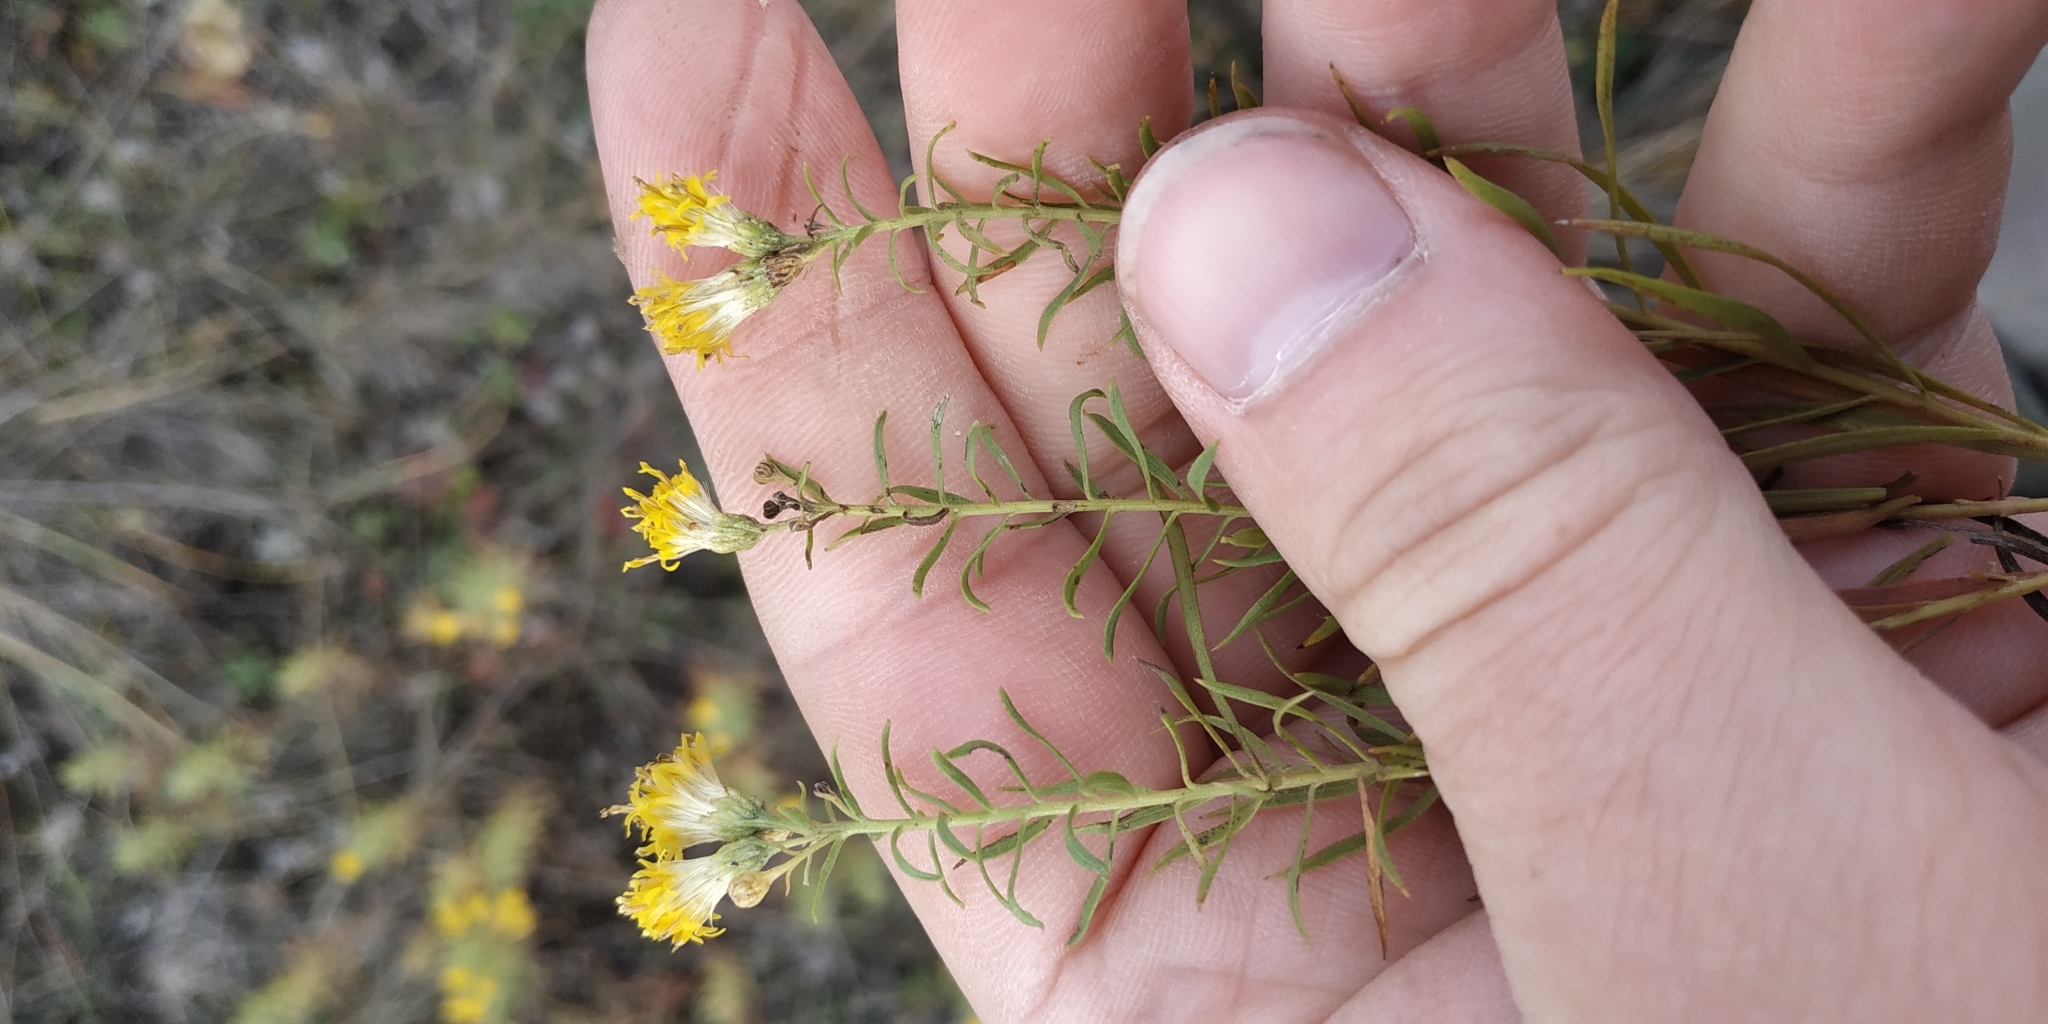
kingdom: Plantae
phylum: Tracheophyta
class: Magnoliopsida
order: Asterales
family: Asteraceae
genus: Galatella
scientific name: Galatella biflora
